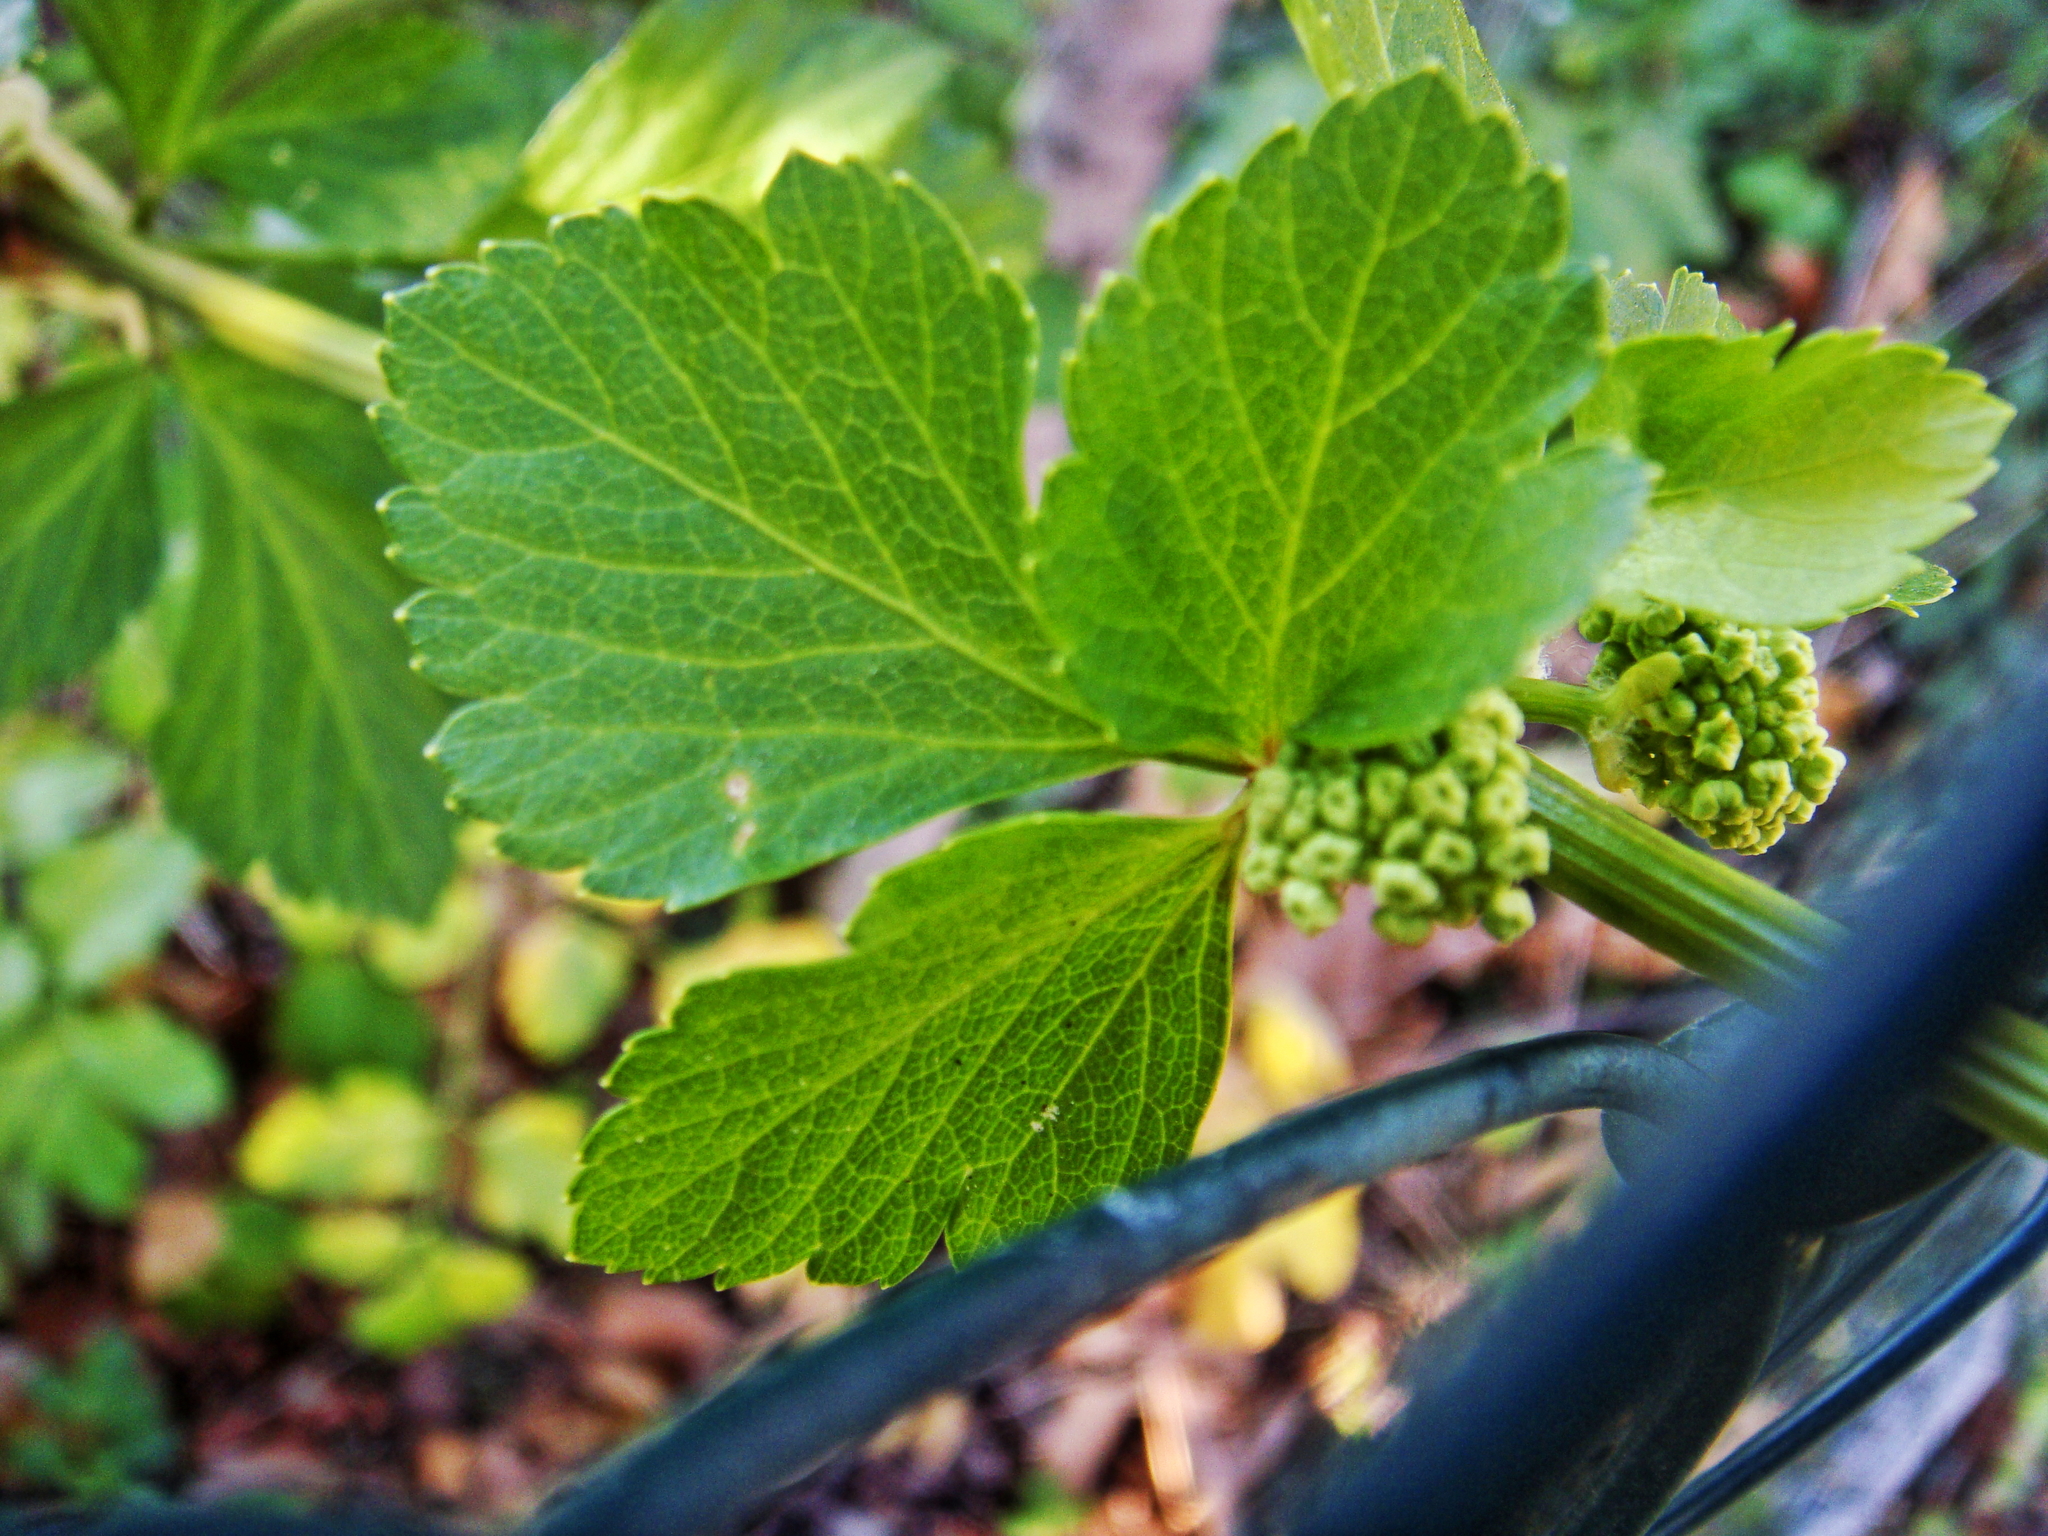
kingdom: Plantae
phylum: Tracheophyta
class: Magnoliopsida
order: Apiales
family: Apiaceae
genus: Smyrnium
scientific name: Smyrnium olusatrum
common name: Alexanders
